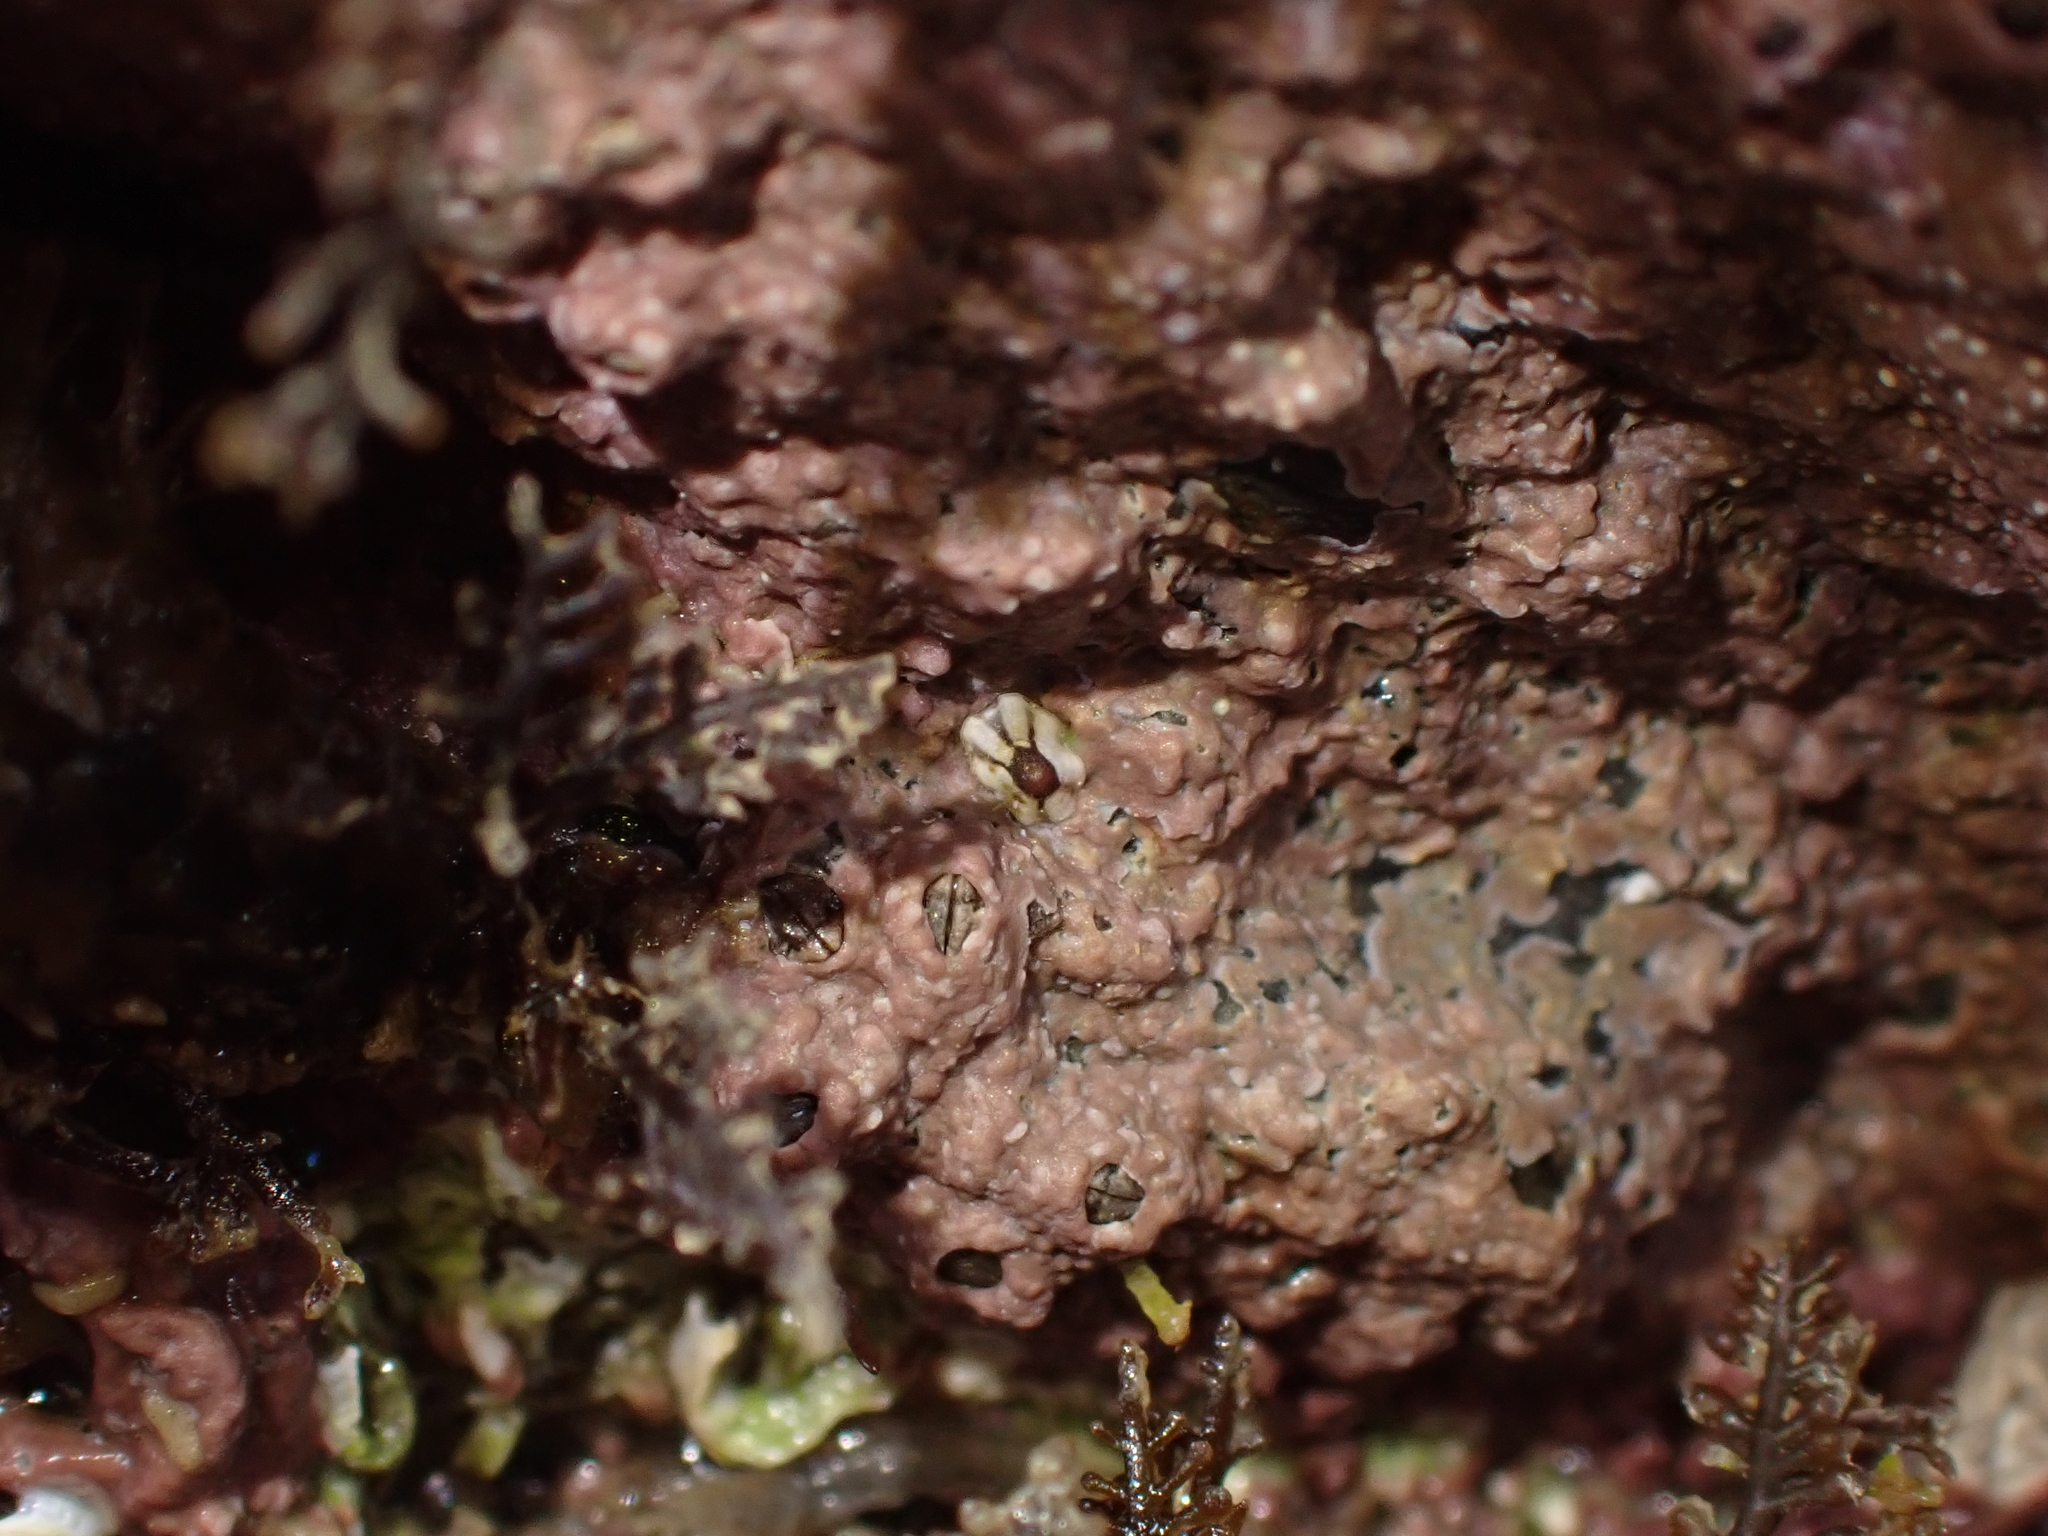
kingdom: Animalia
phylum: Mollusca
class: Gastropoda
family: Lottiidae
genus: Patelloida
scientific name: Patelloida corticata
